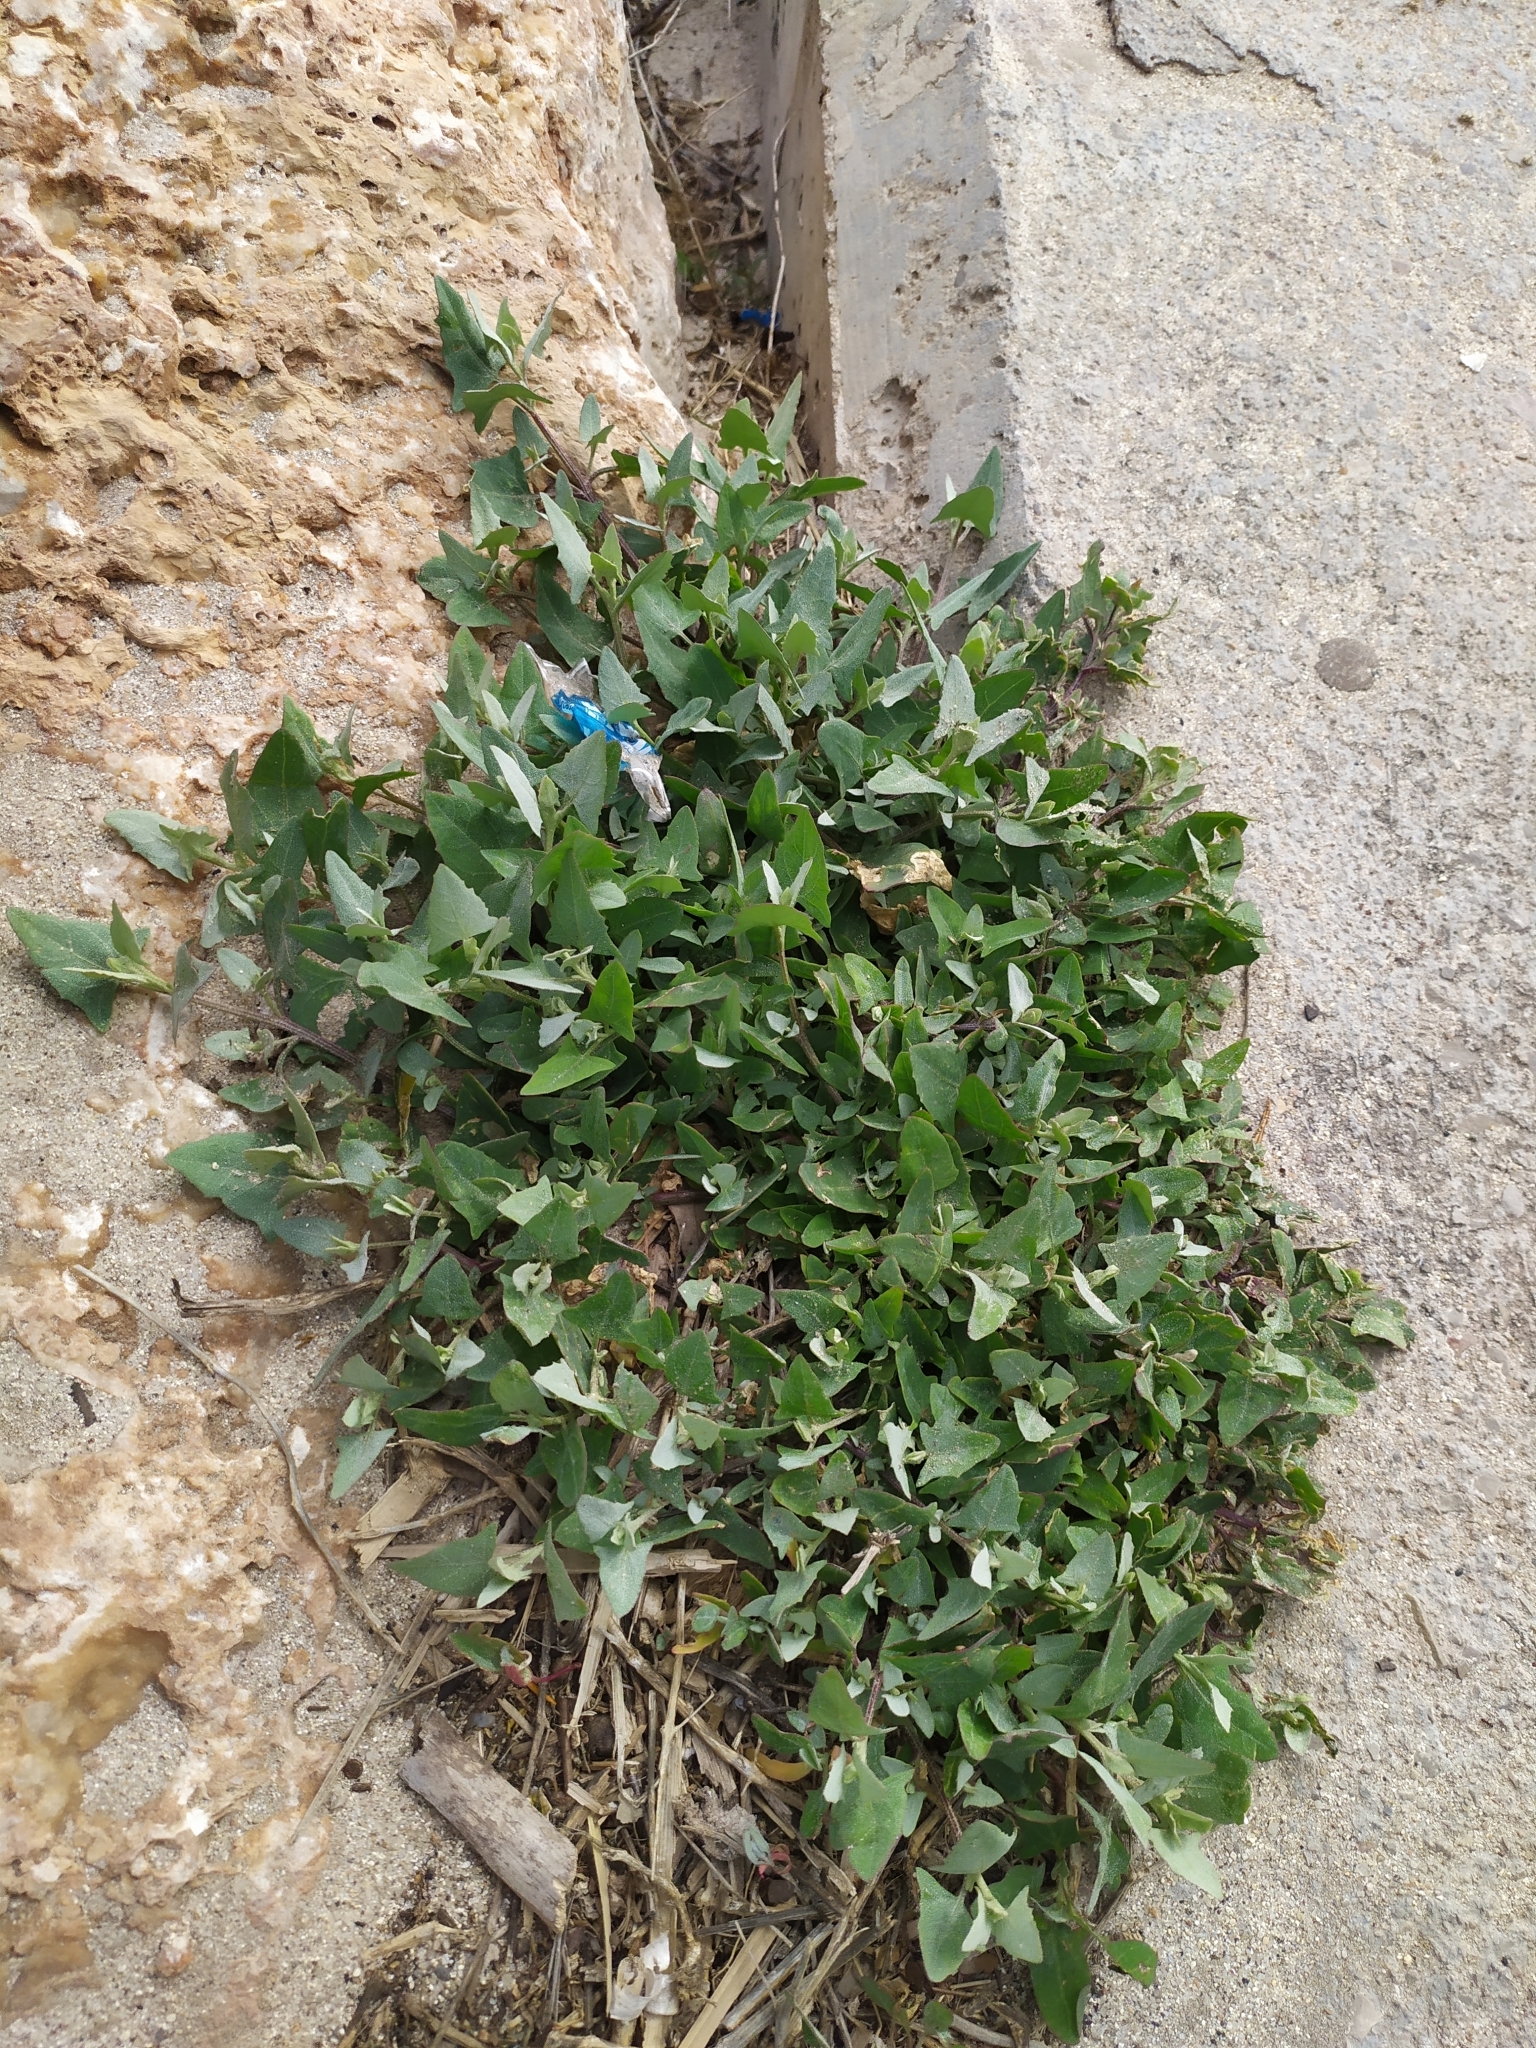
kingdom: Plantae
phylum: Tracheophyta
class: Magnoliopsida
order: Caryophyllales
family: Amaranthaceae
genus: Atriplex
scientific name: Atriplex prostrata
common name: Spear-leaved orache
